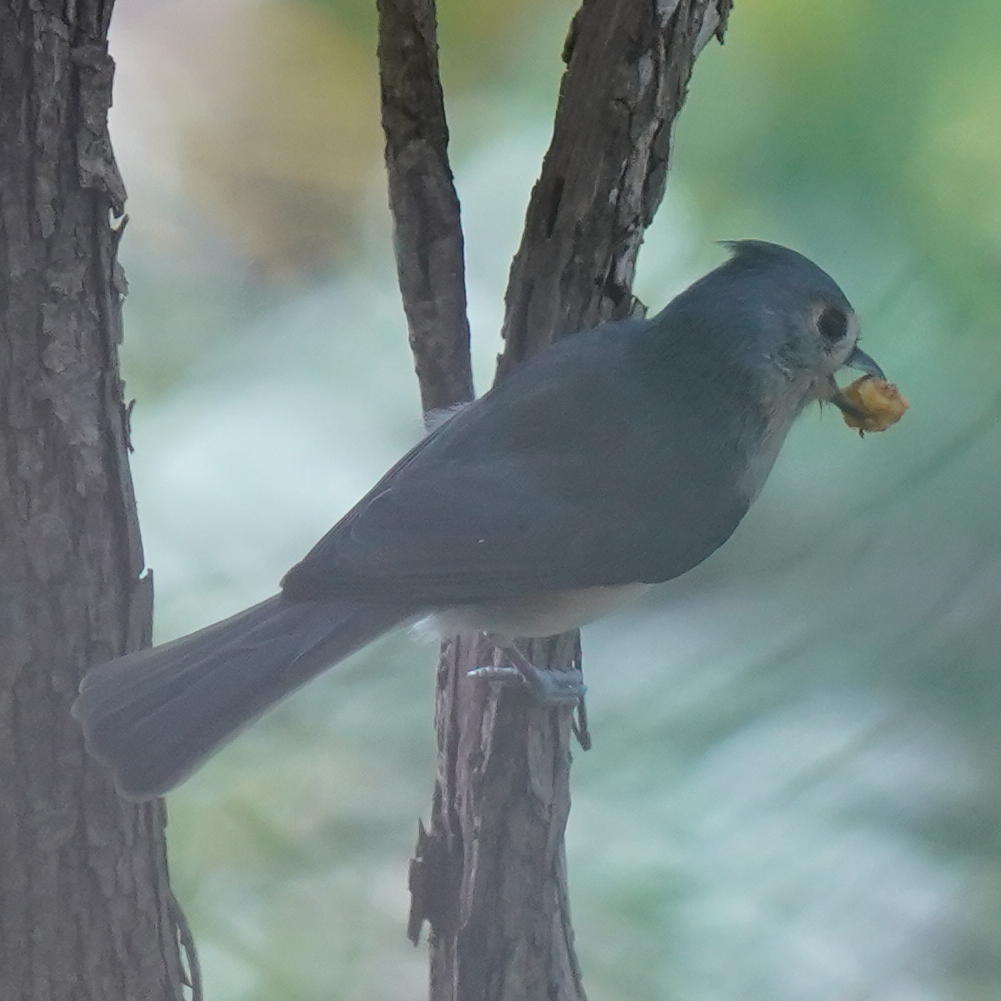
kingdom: Animalia
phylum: Chordata
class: Aves
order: Passeriformes
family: Paridae
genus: Baeolophus
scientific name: Baeolophus bicolor
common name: Tufted titmouse
